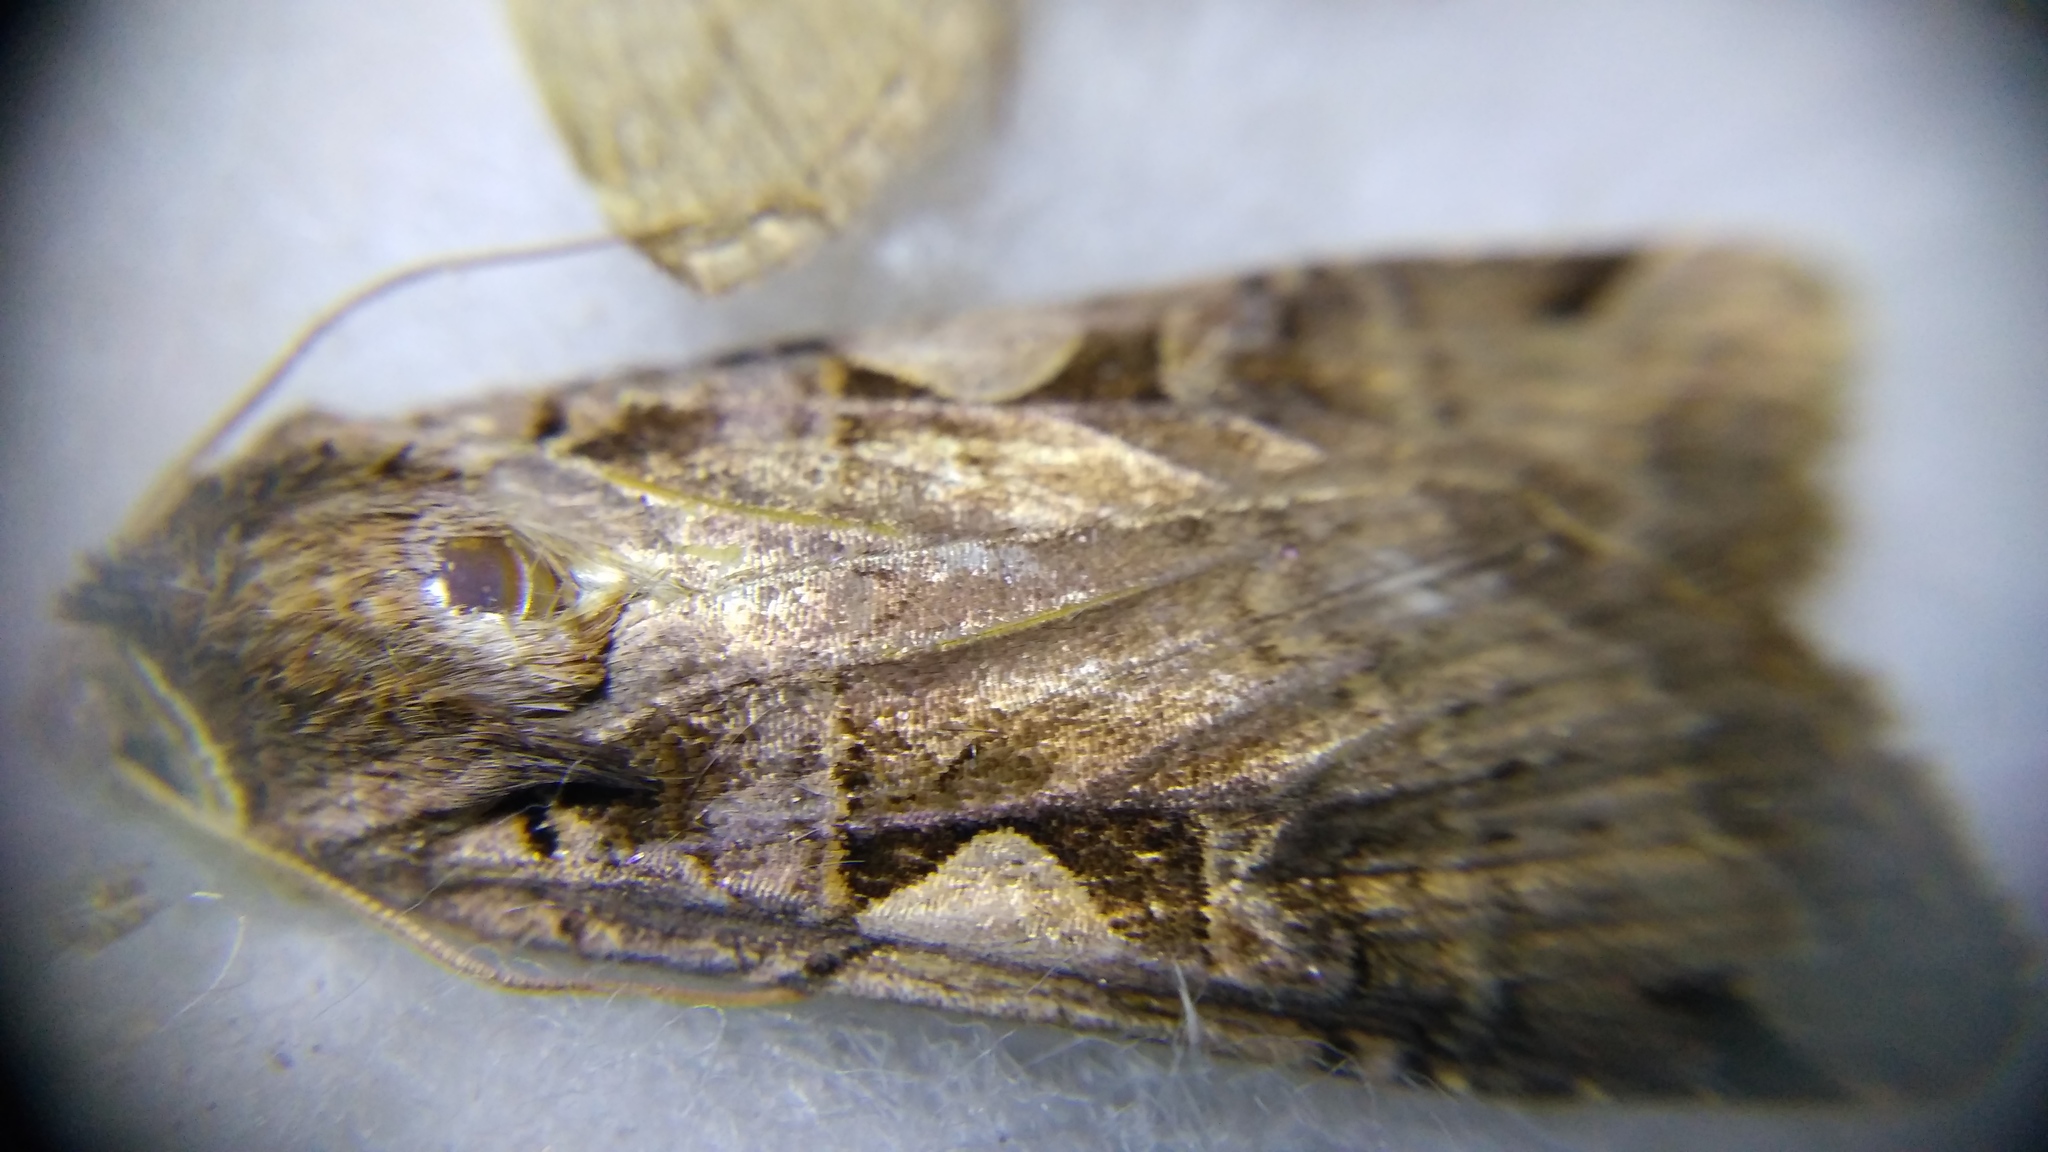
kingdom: Animalia
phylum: Arthropoda
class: Insecta
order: Lepidoptera
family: Noctuidae
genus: Xestia
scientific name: Xestia c-nigrum
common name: Setaceous hebrew character
